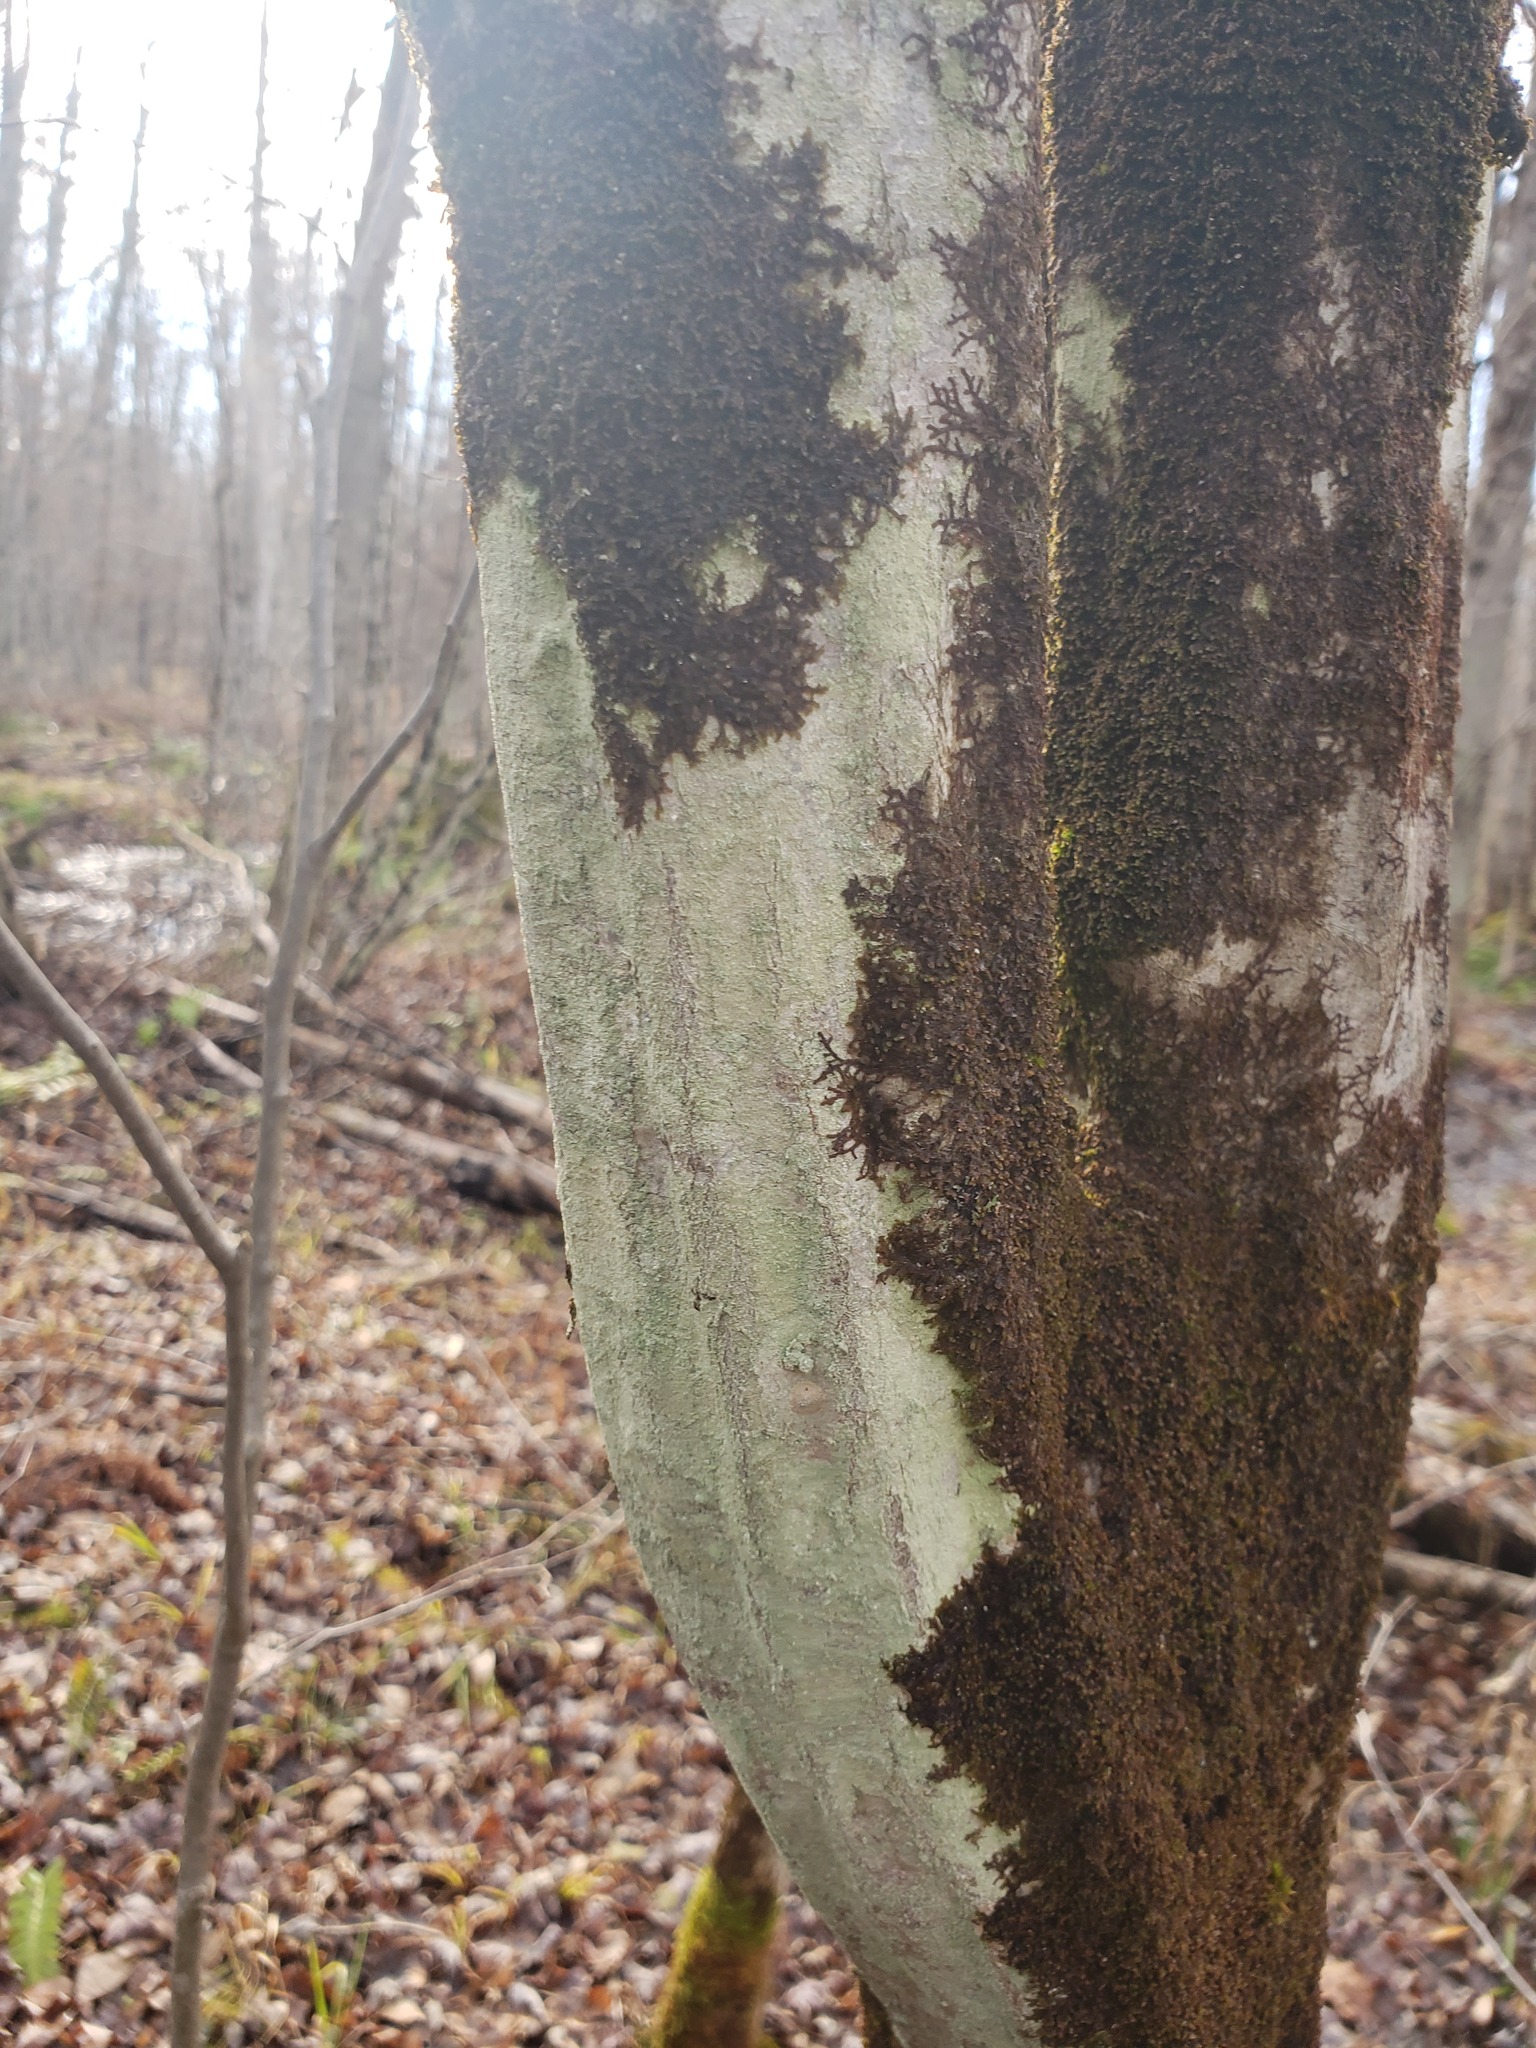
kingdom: Plantae
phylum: Tracheophyta
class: Magnoliopsida
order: Fagales
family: Betulaceae
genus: Carpinus
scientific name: Carpinus caroliniana
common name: American hornbeam
